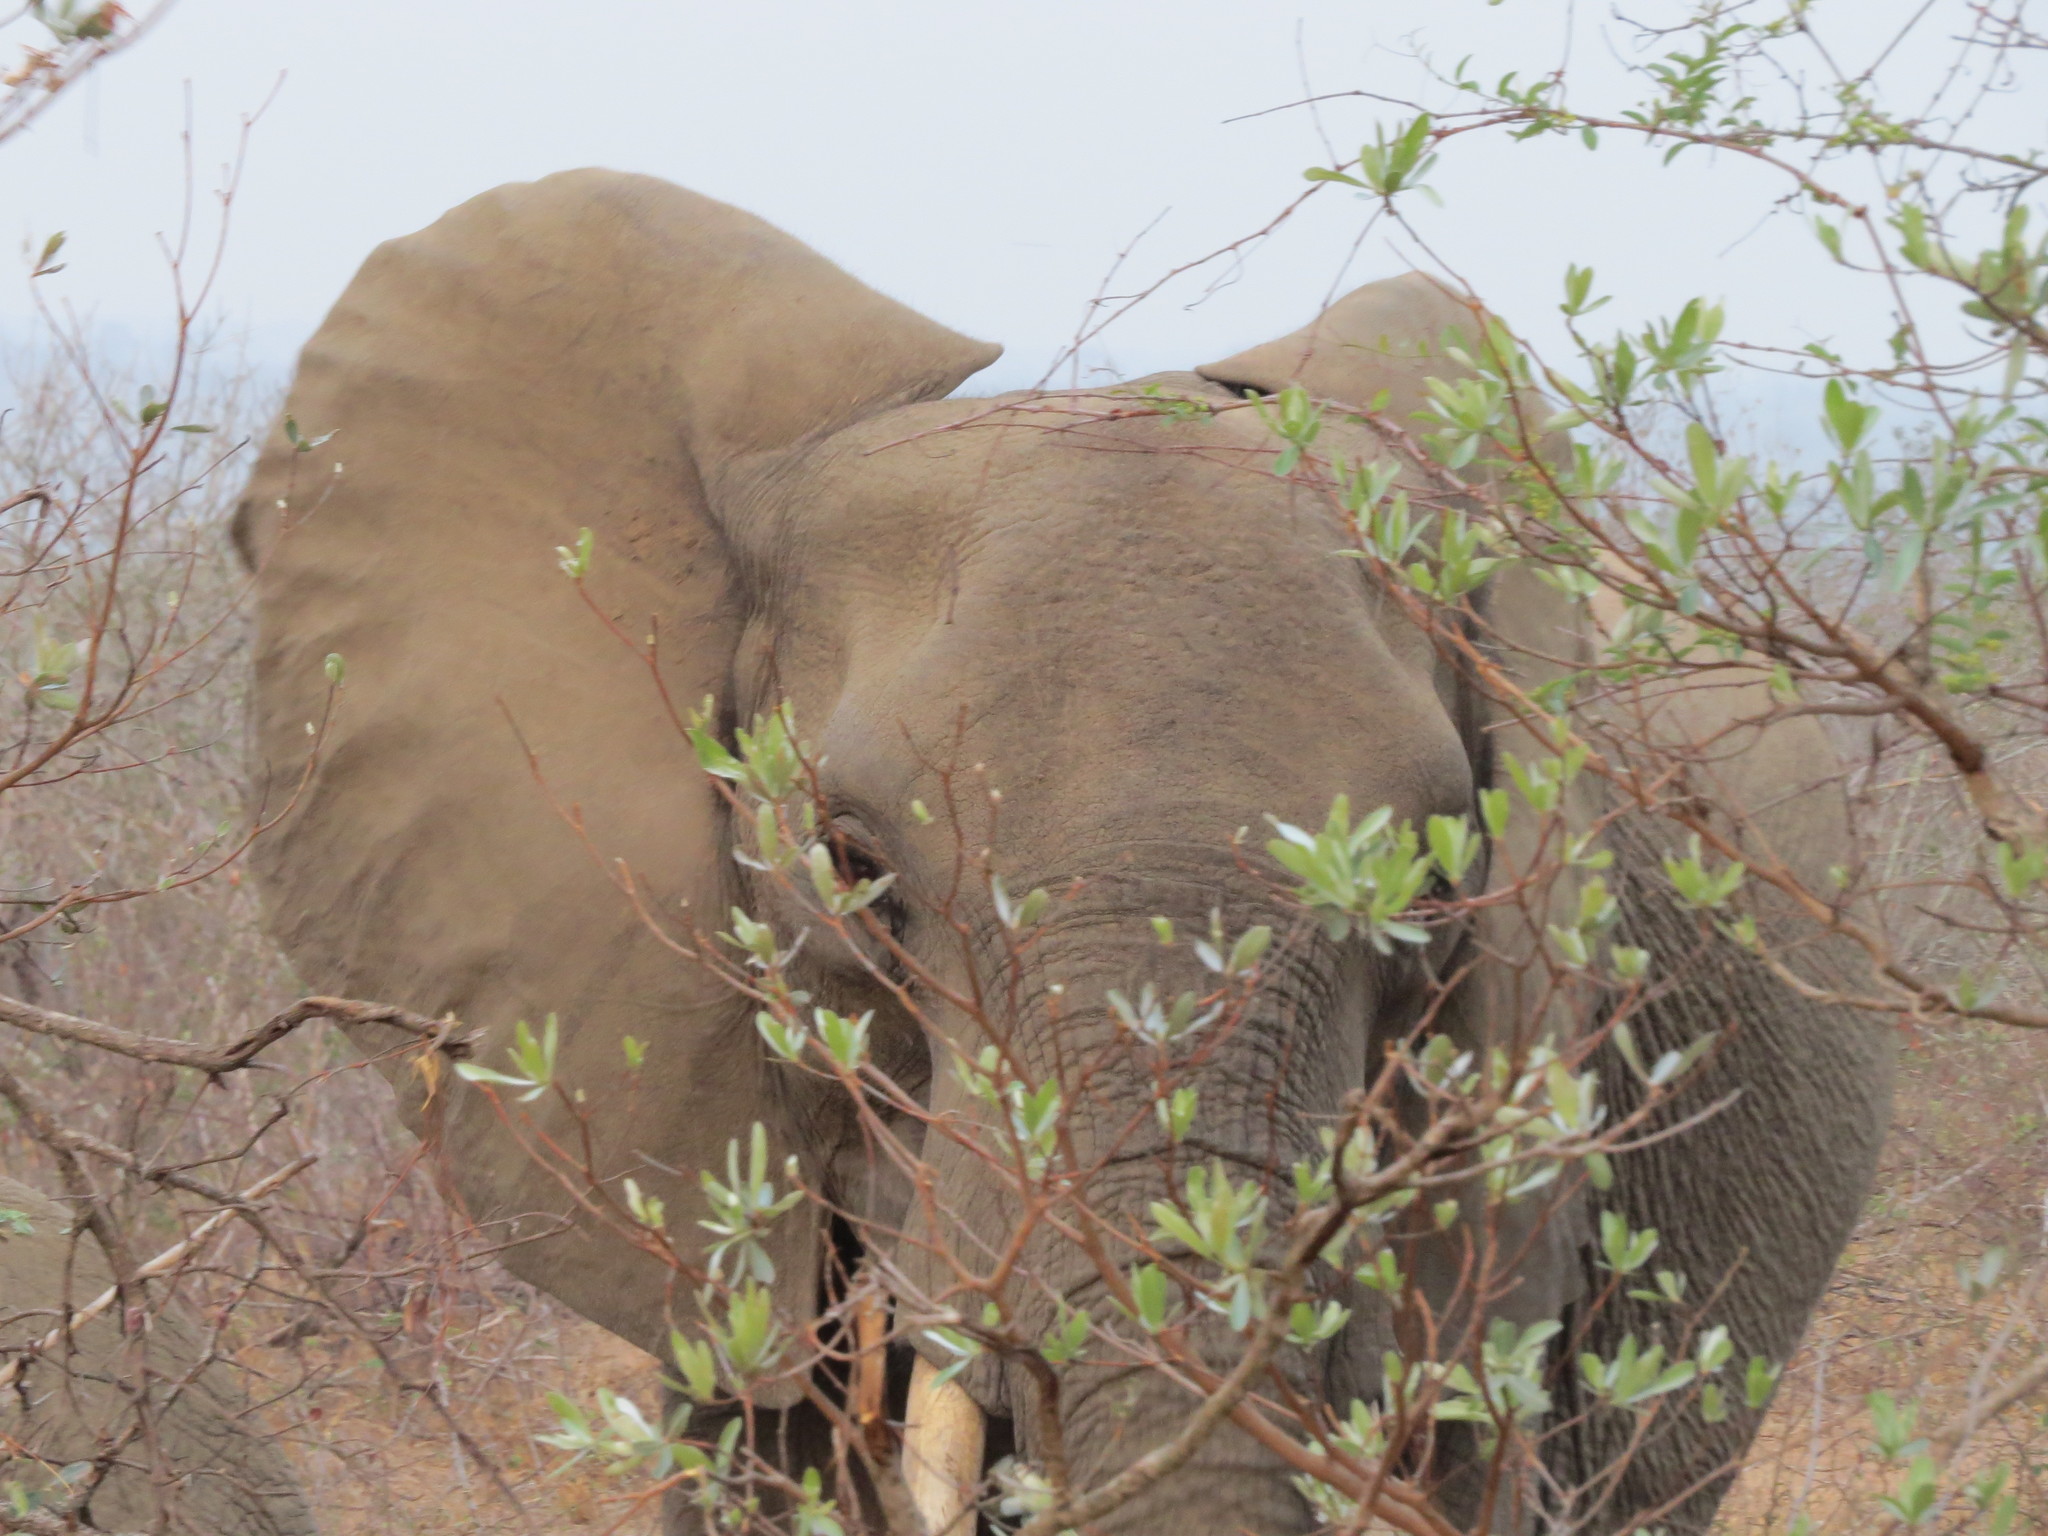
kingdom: Animalia
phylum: Chordata
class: Mammalia
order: Proboscidea
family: Elephantidae
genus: Loxodonta
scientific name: Loxodonta africana
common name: African elephant
